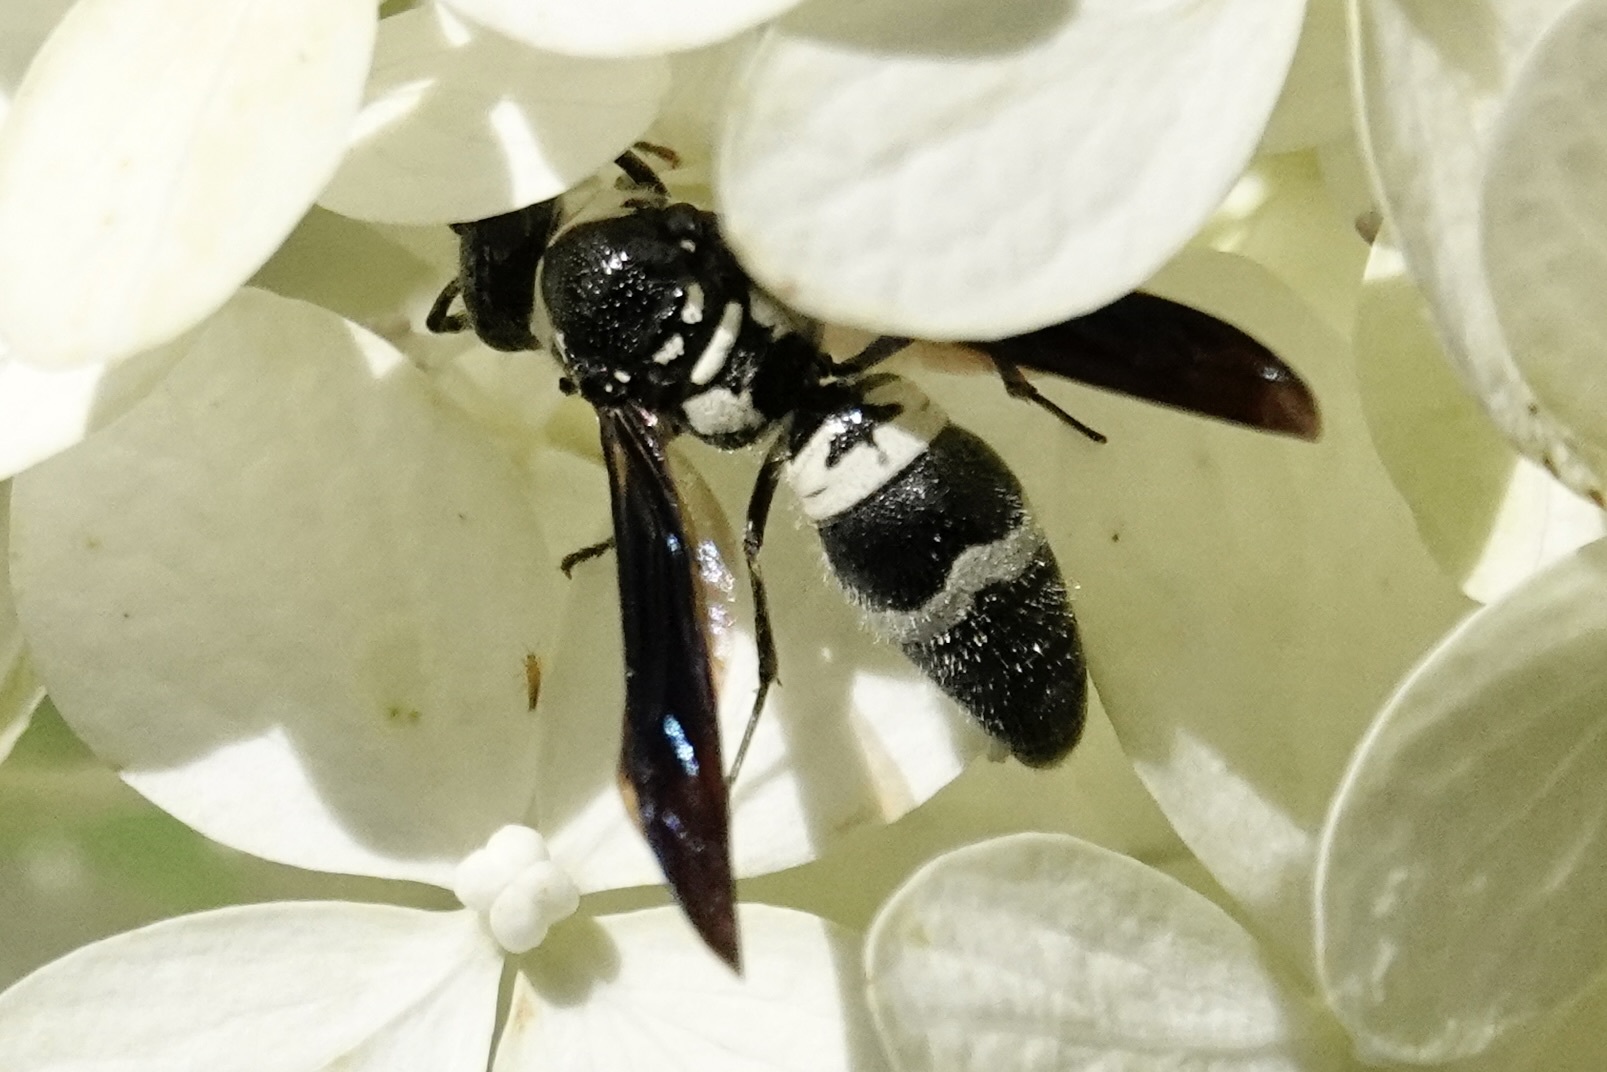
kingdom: Animalia
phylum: Arthropoda
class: Insecta
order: Hymenoptera
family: Eumenidae
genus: Pseudodynerus
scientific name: Pseudodynerus quadrisectus
